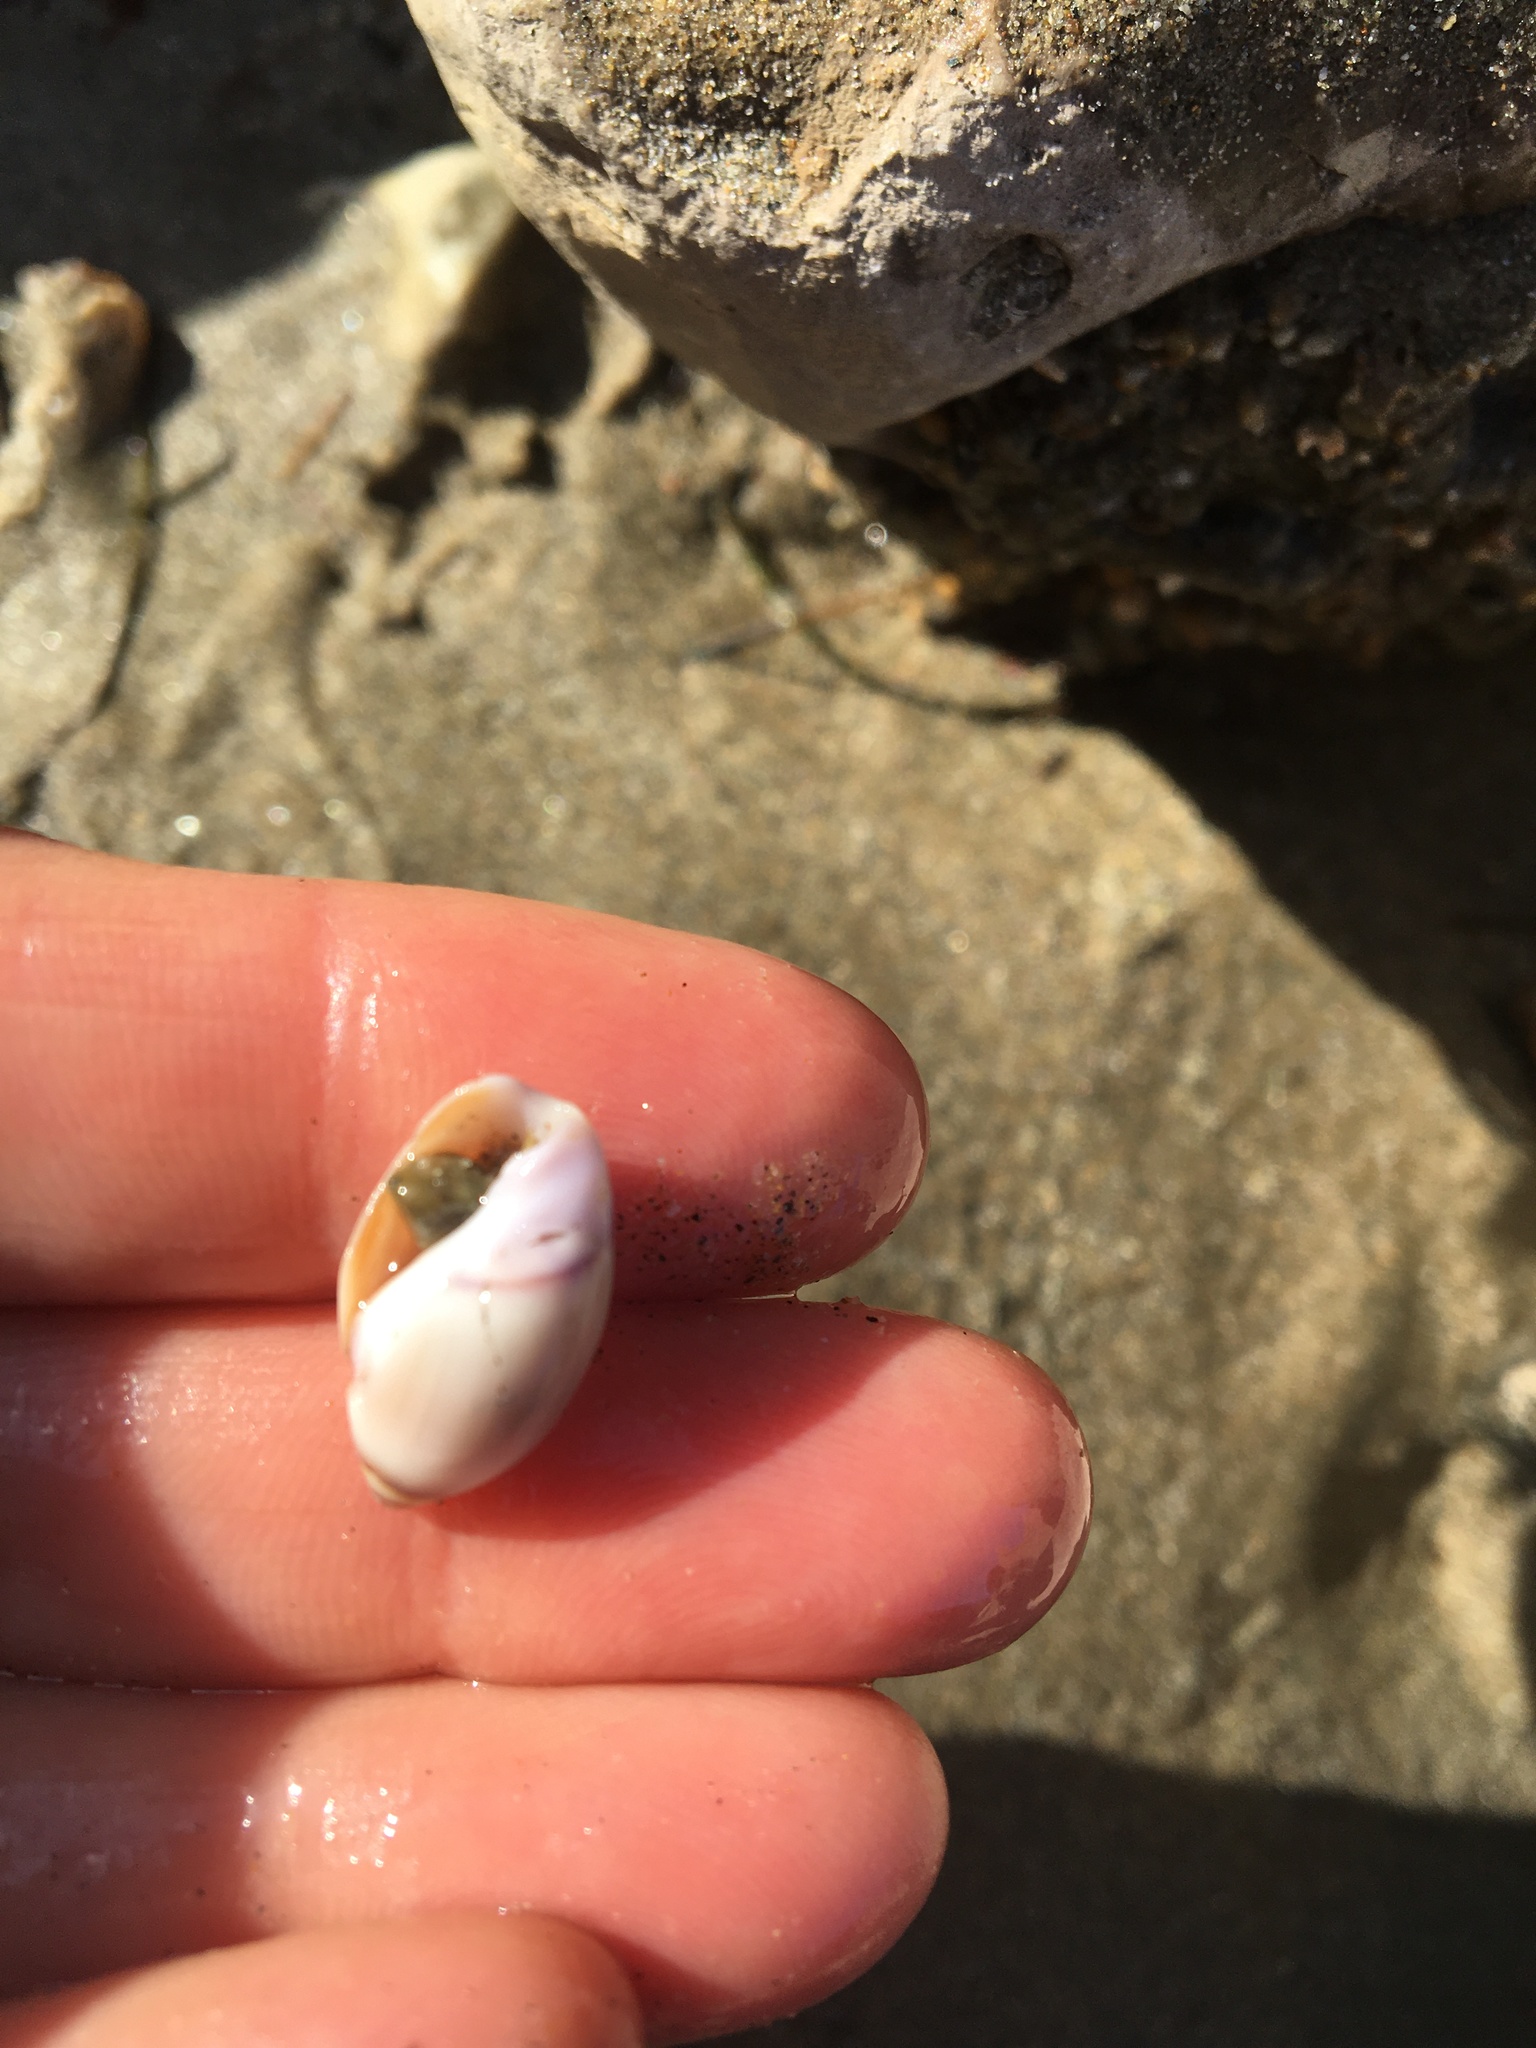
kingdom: Animalia
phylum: Mollusca
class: Gastropoda
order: Neogastropoda
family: Olividae
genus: Callianax
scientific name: Callianax biplicata
